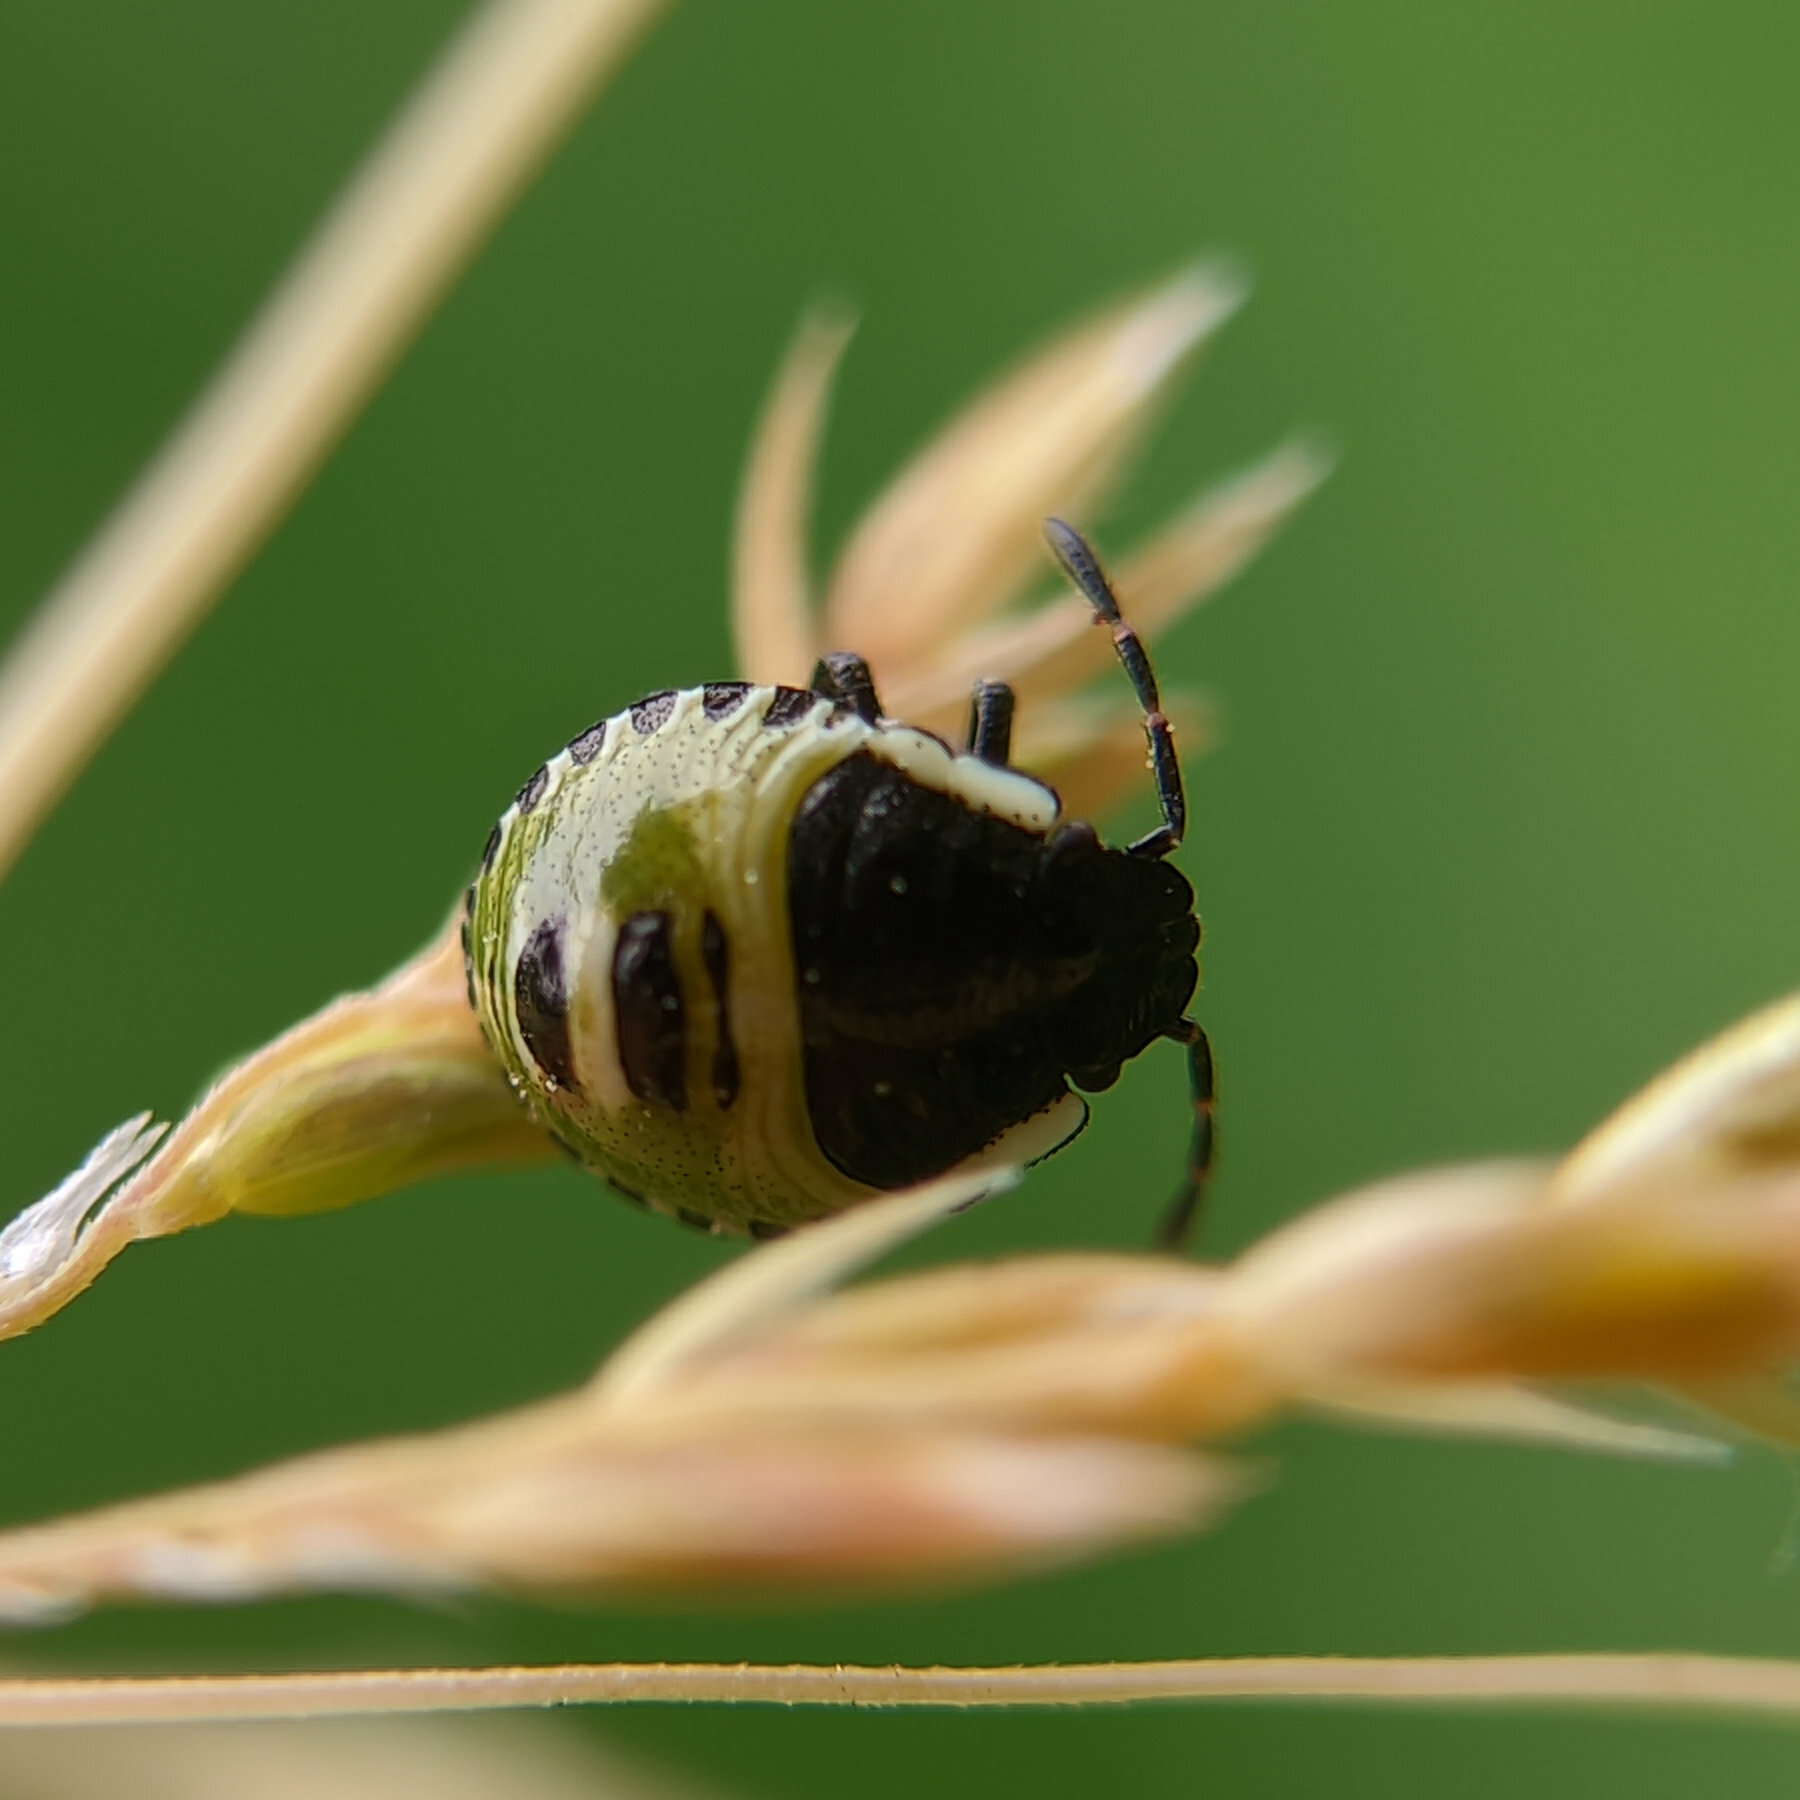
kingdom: Animalia
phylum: Arthropoda
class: Insecta
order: Hemiptera
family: Pentatomidae
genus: Palomena
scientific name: Palomena prasina
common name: Green shieldbug
